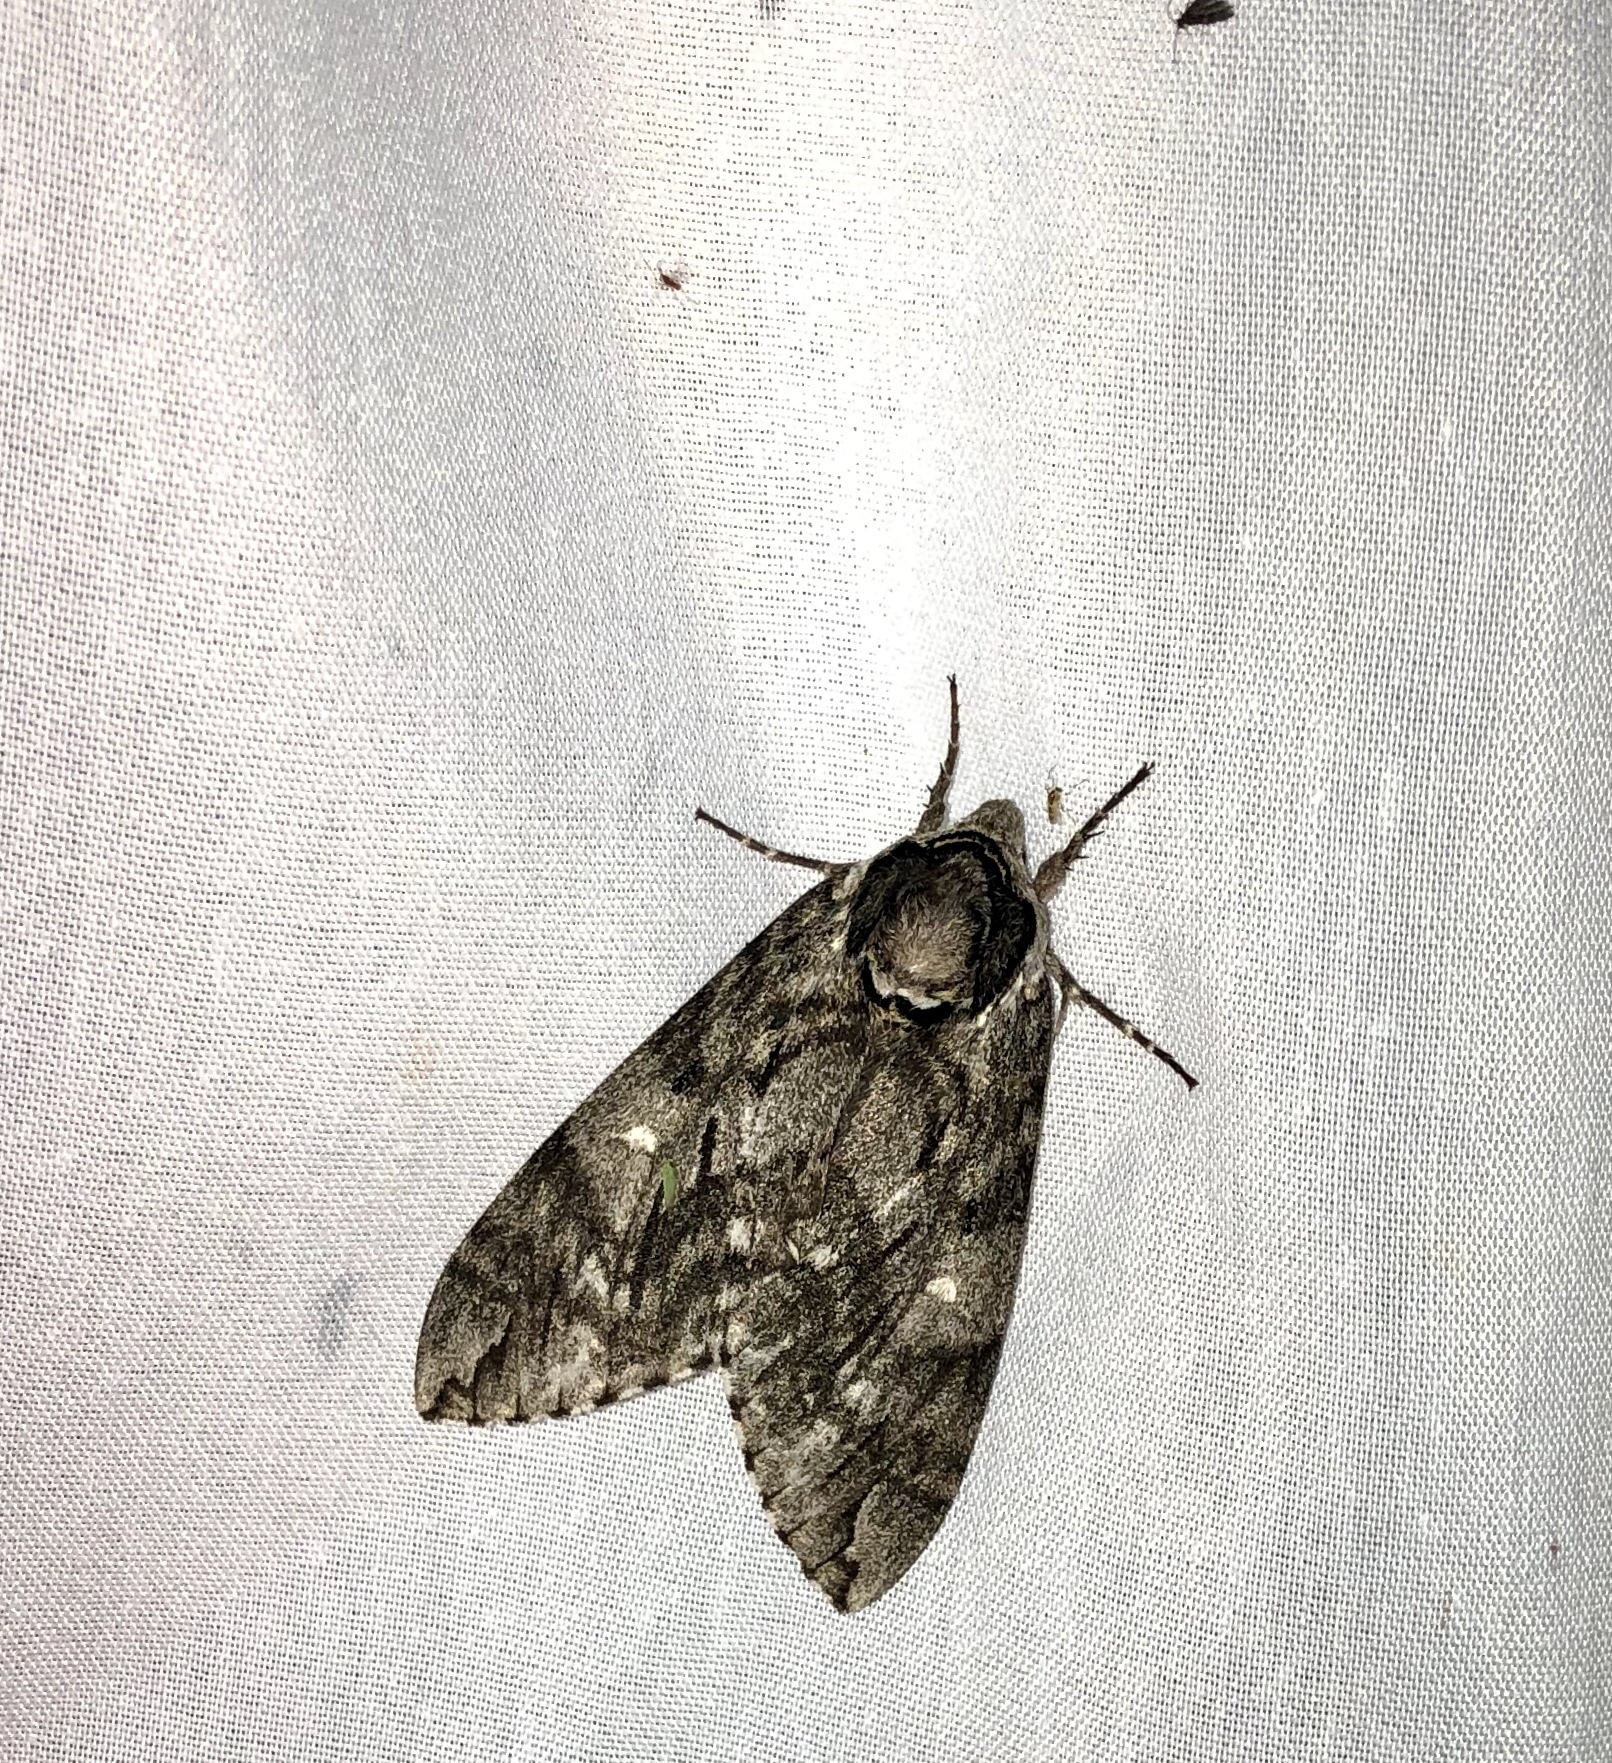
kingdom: Animalia
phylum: Arthropoda
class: Insecta
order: Lepidoptera
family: Sphingidae
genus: Ceratomia
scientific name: Ceratomia undulosa
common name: Waved sphinx
